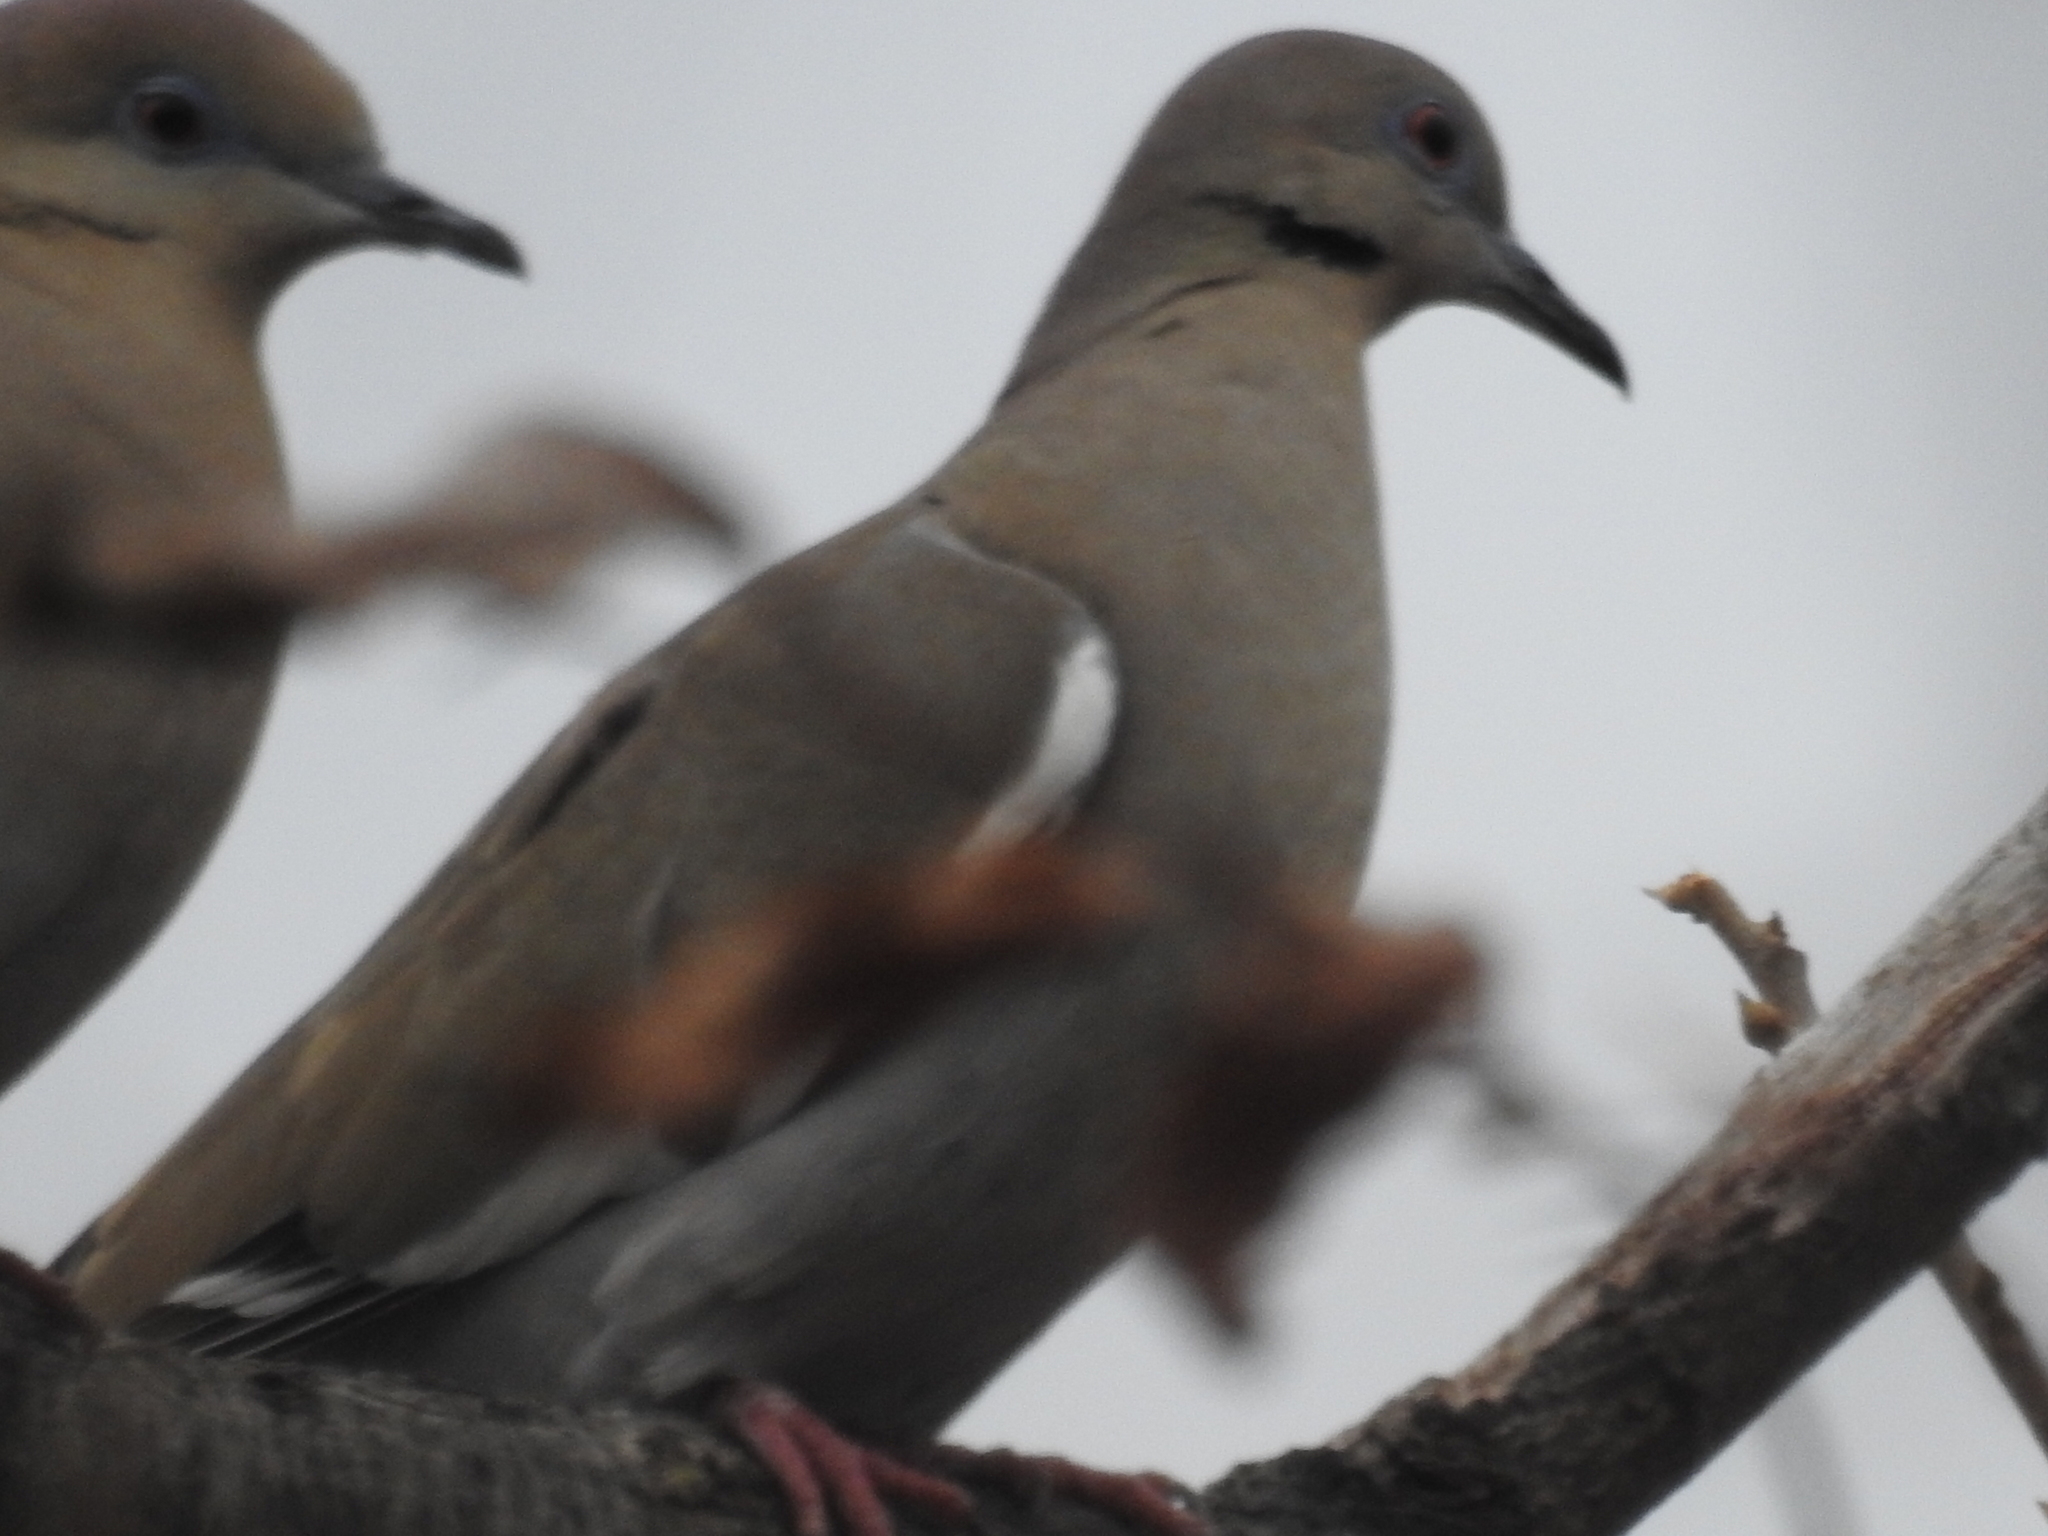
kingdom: Animalia
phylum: Chordata
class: Aves
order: Columbiformes
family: Columbidae
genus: Zenaida
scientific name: Zenaida asiatica
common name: White-winged dove
